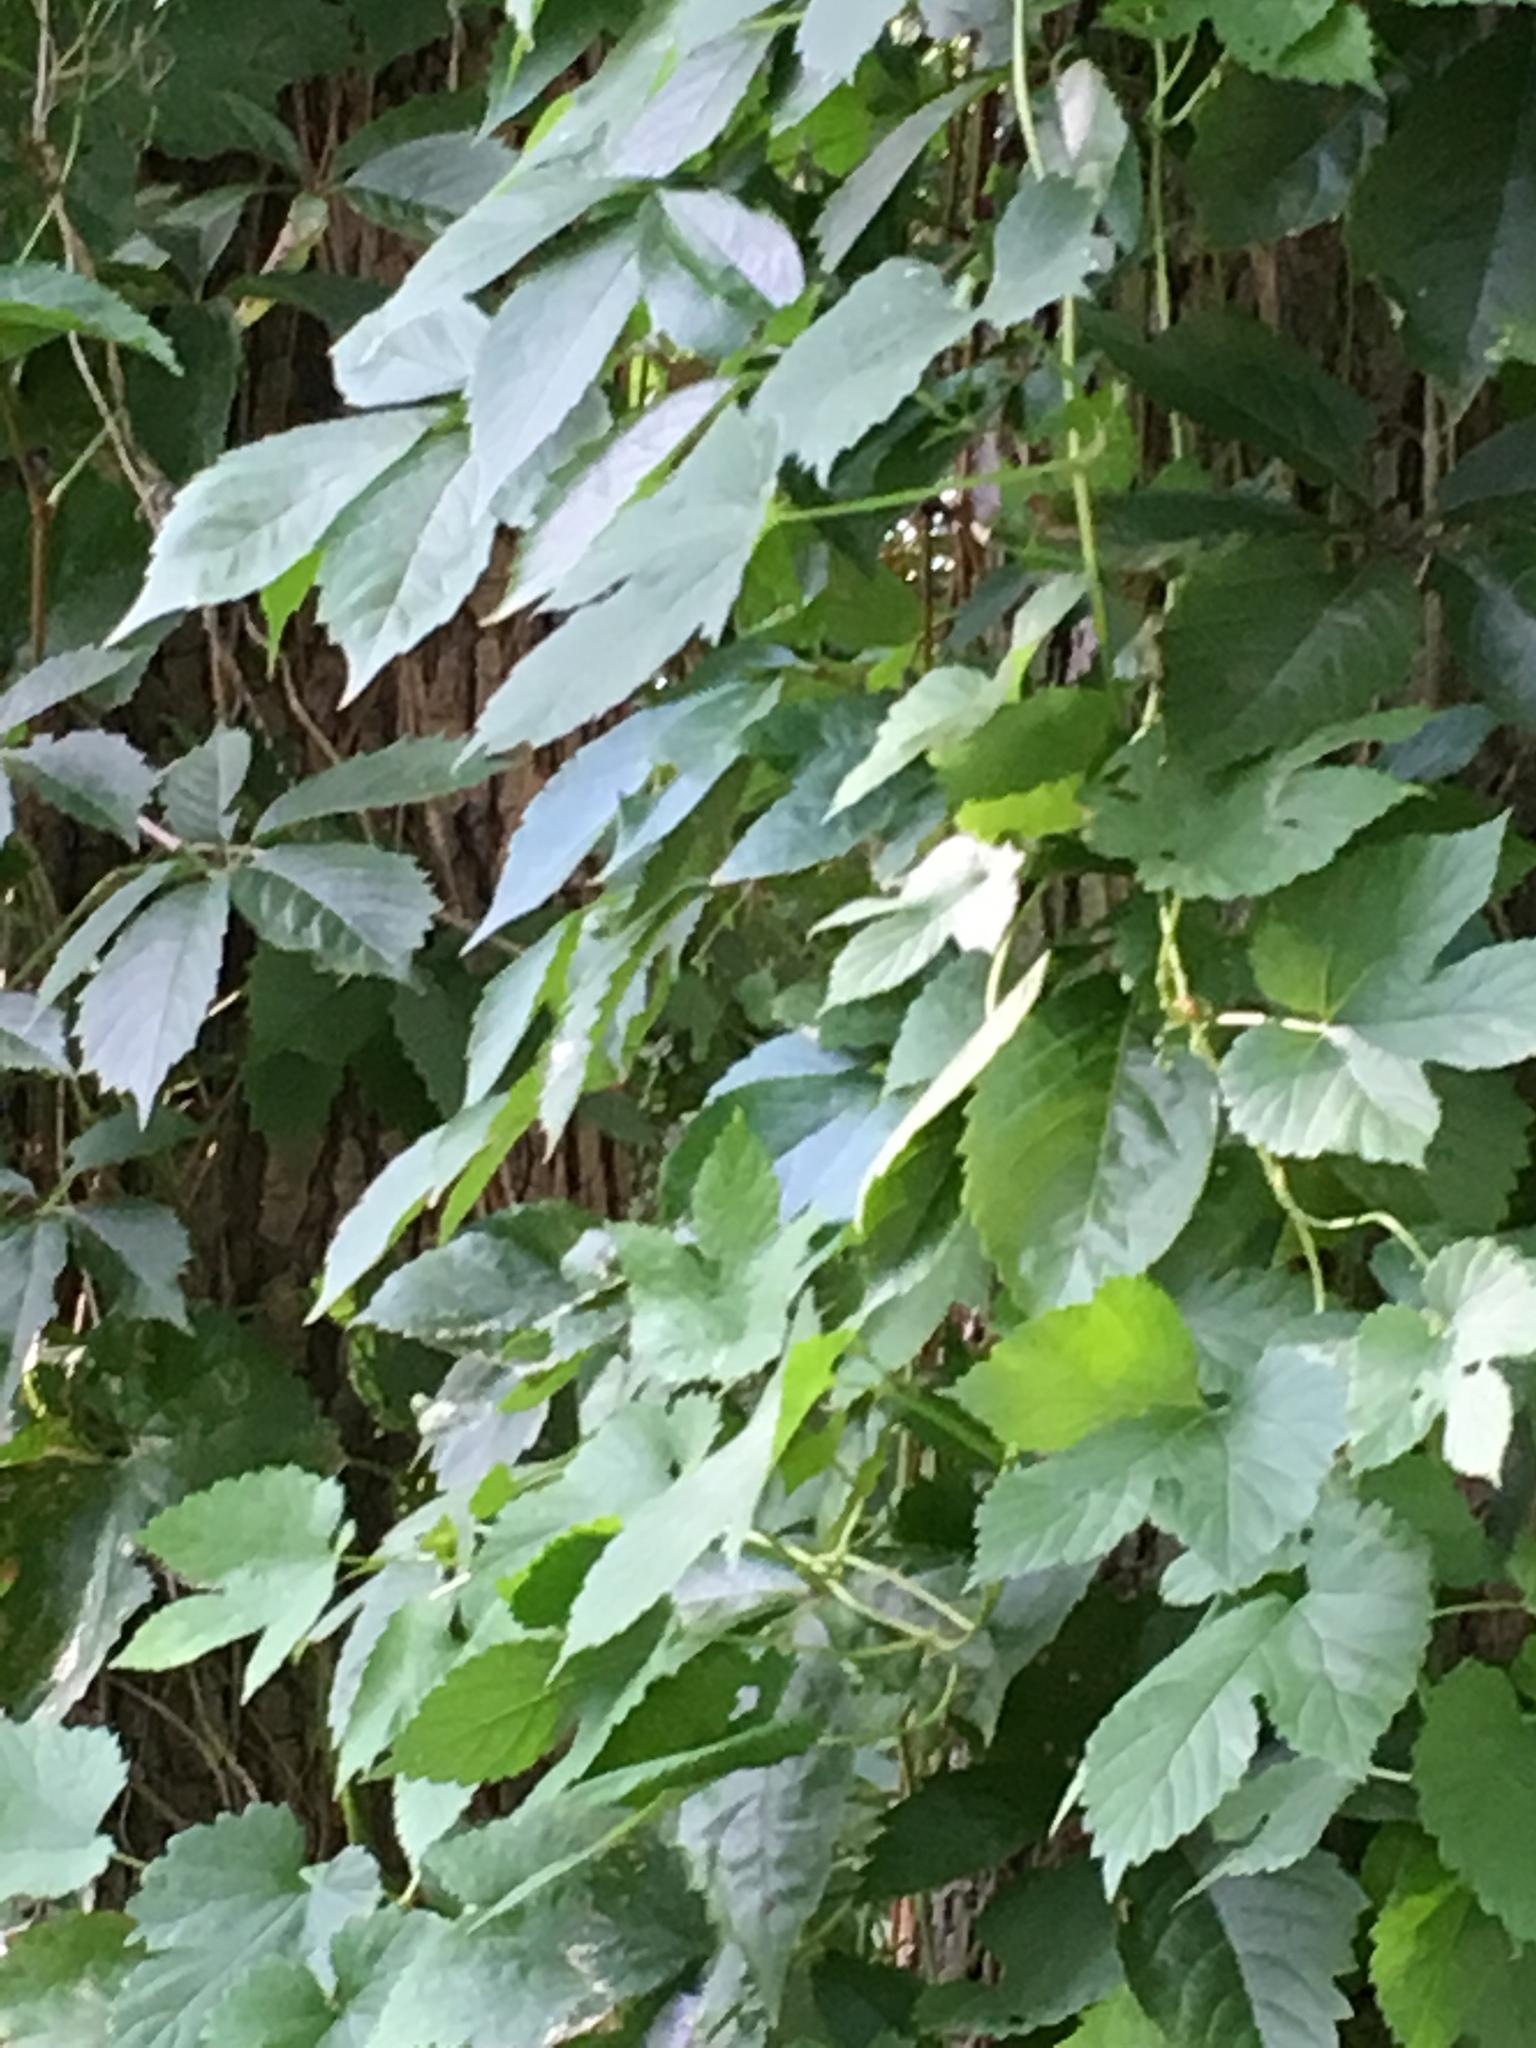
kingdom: Plantae
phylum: Tracheophyta
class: Magnoliopsida
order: Rosales
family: Cannabaceae
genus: Humulus
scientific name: Humulus lupulus
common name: Hop
